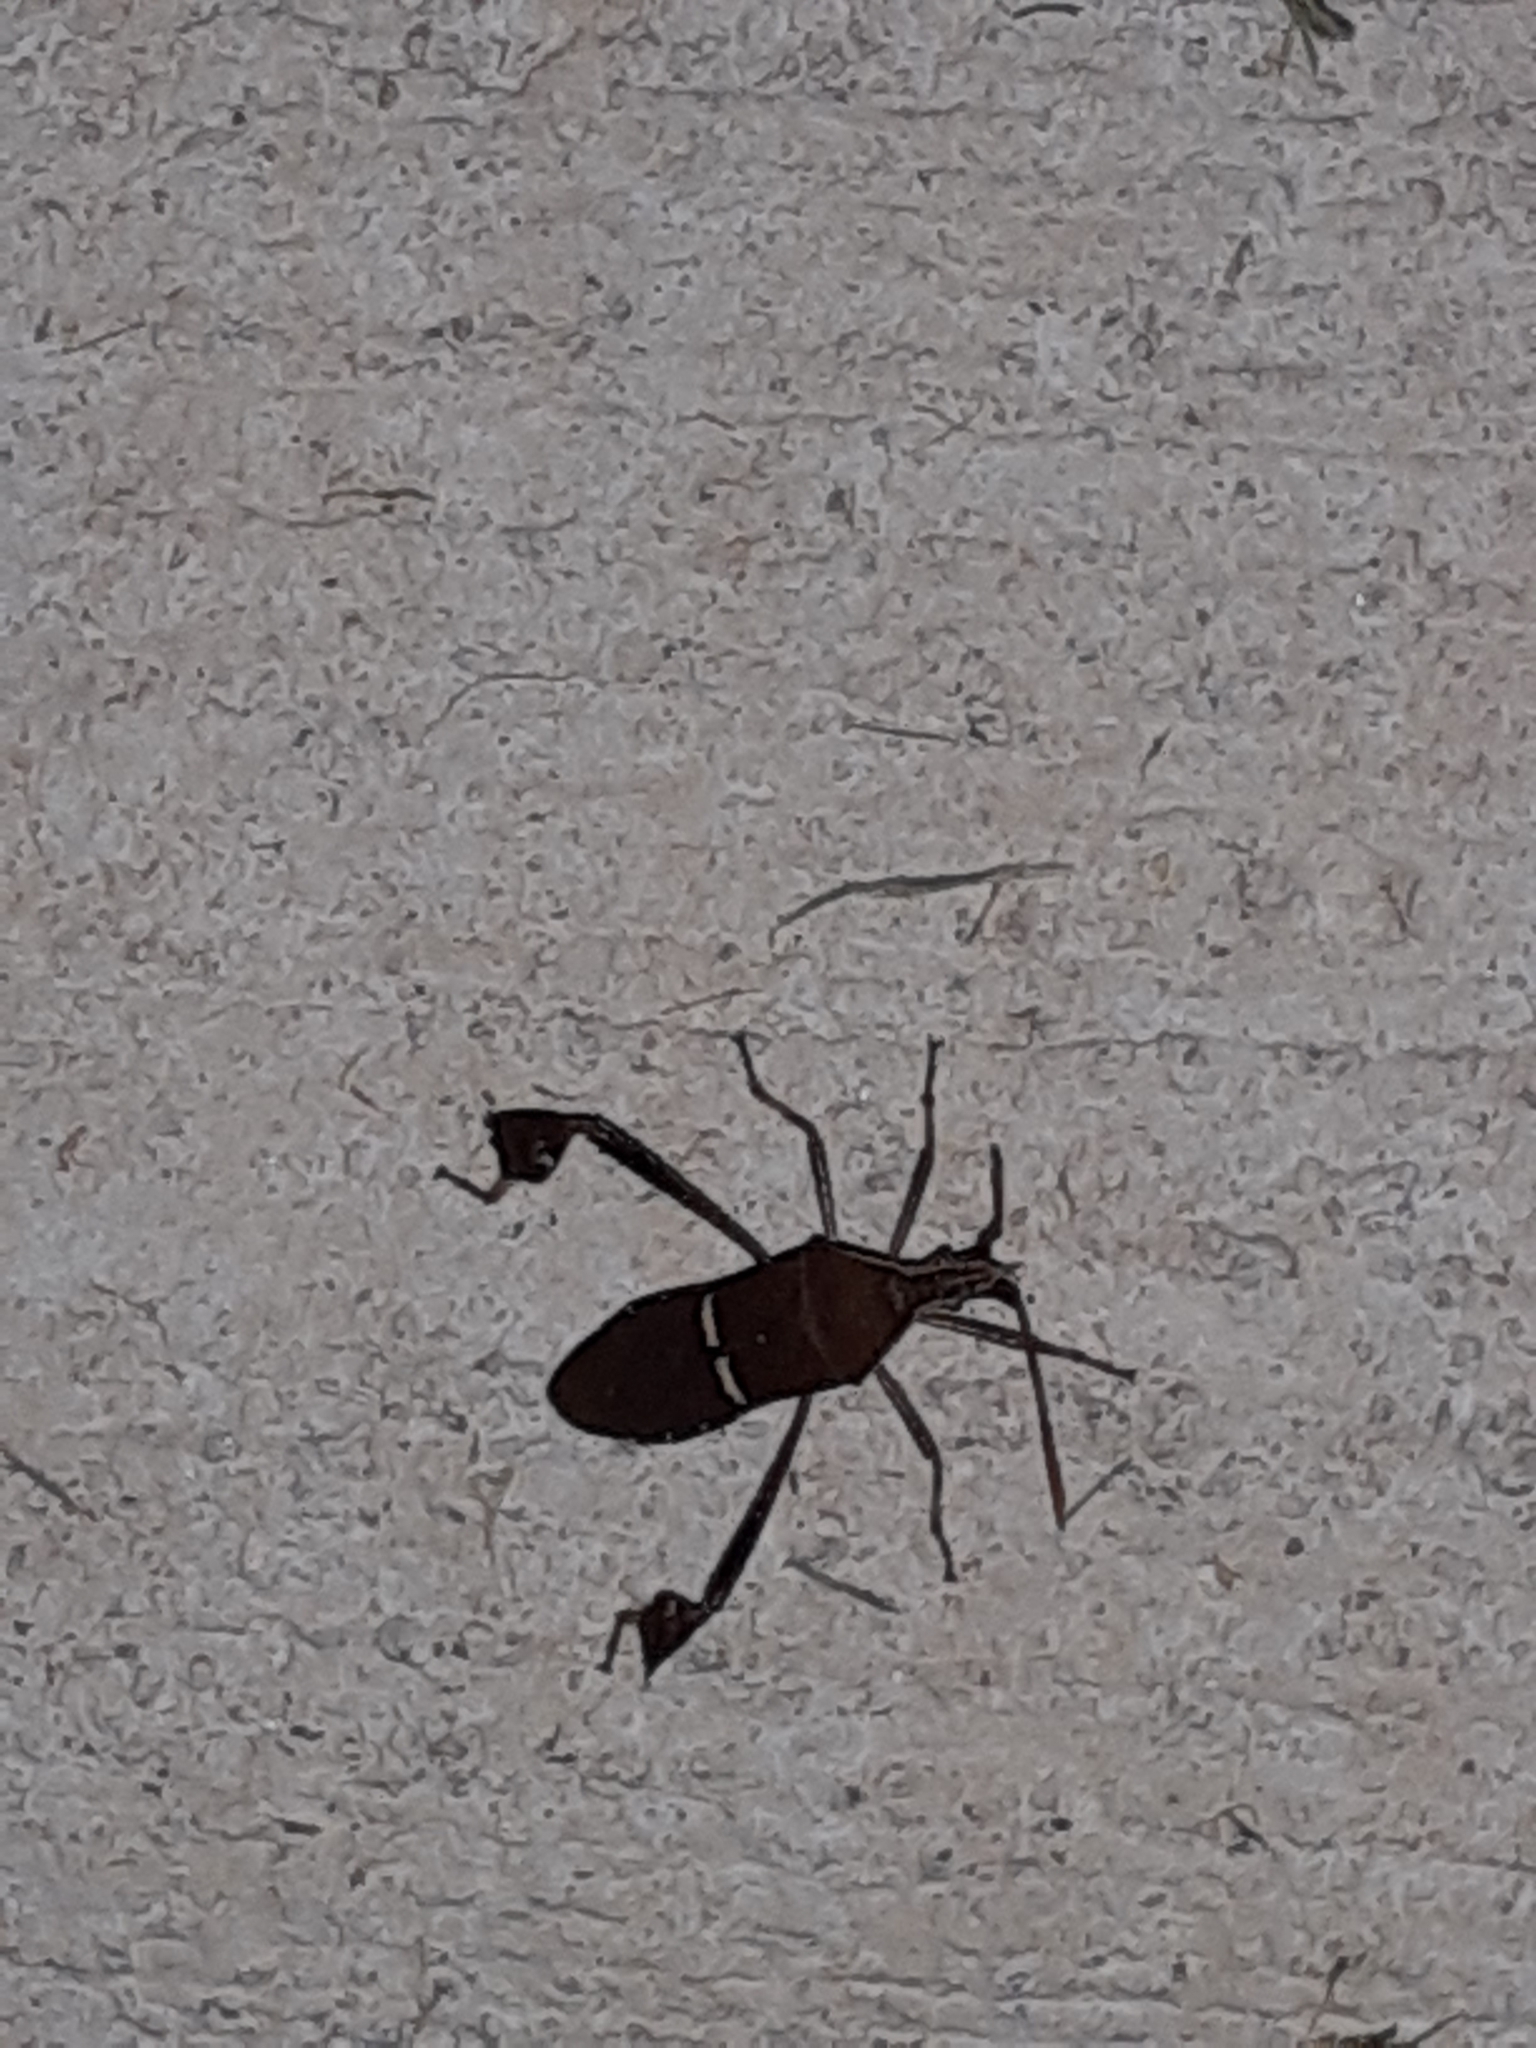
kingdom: Animalia
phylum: Arthropoda
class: Insecta
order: Hemiptera
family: Coreidae
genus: Leptoglossus
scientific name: Leptoglossus phyllopus
